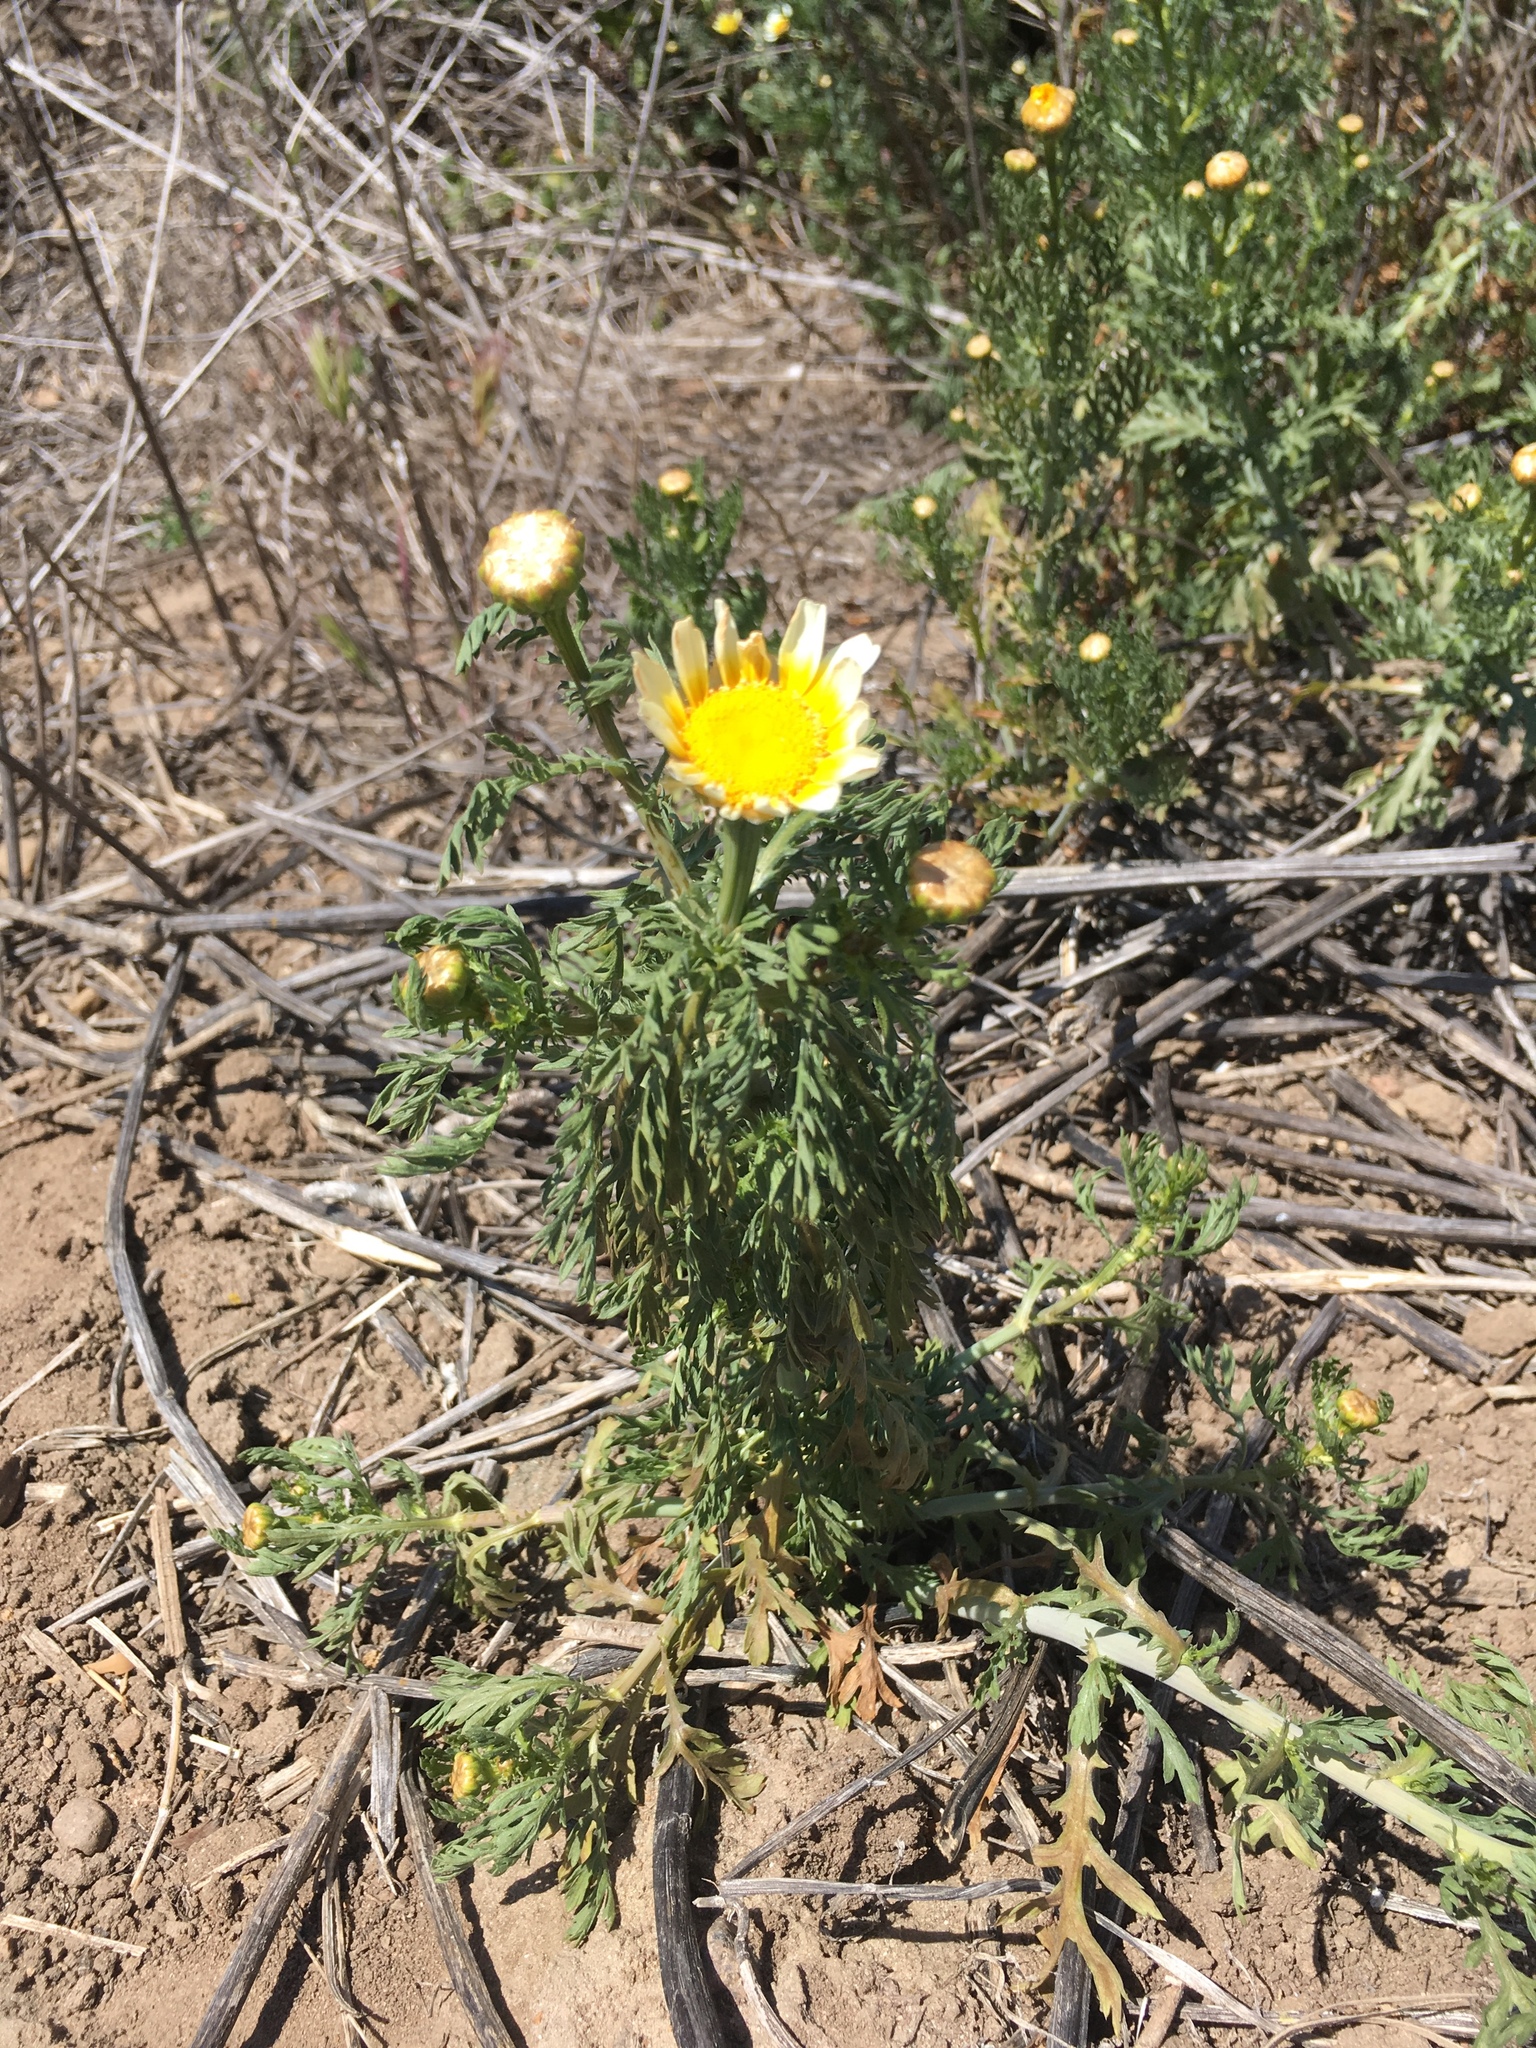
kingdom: Plantae
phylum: Tracheophyta
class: Magnoliopsida
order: Asterales
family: Asteraceae
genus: Glebionis
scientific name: Glebionis coronaria
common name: Crowndaisy
